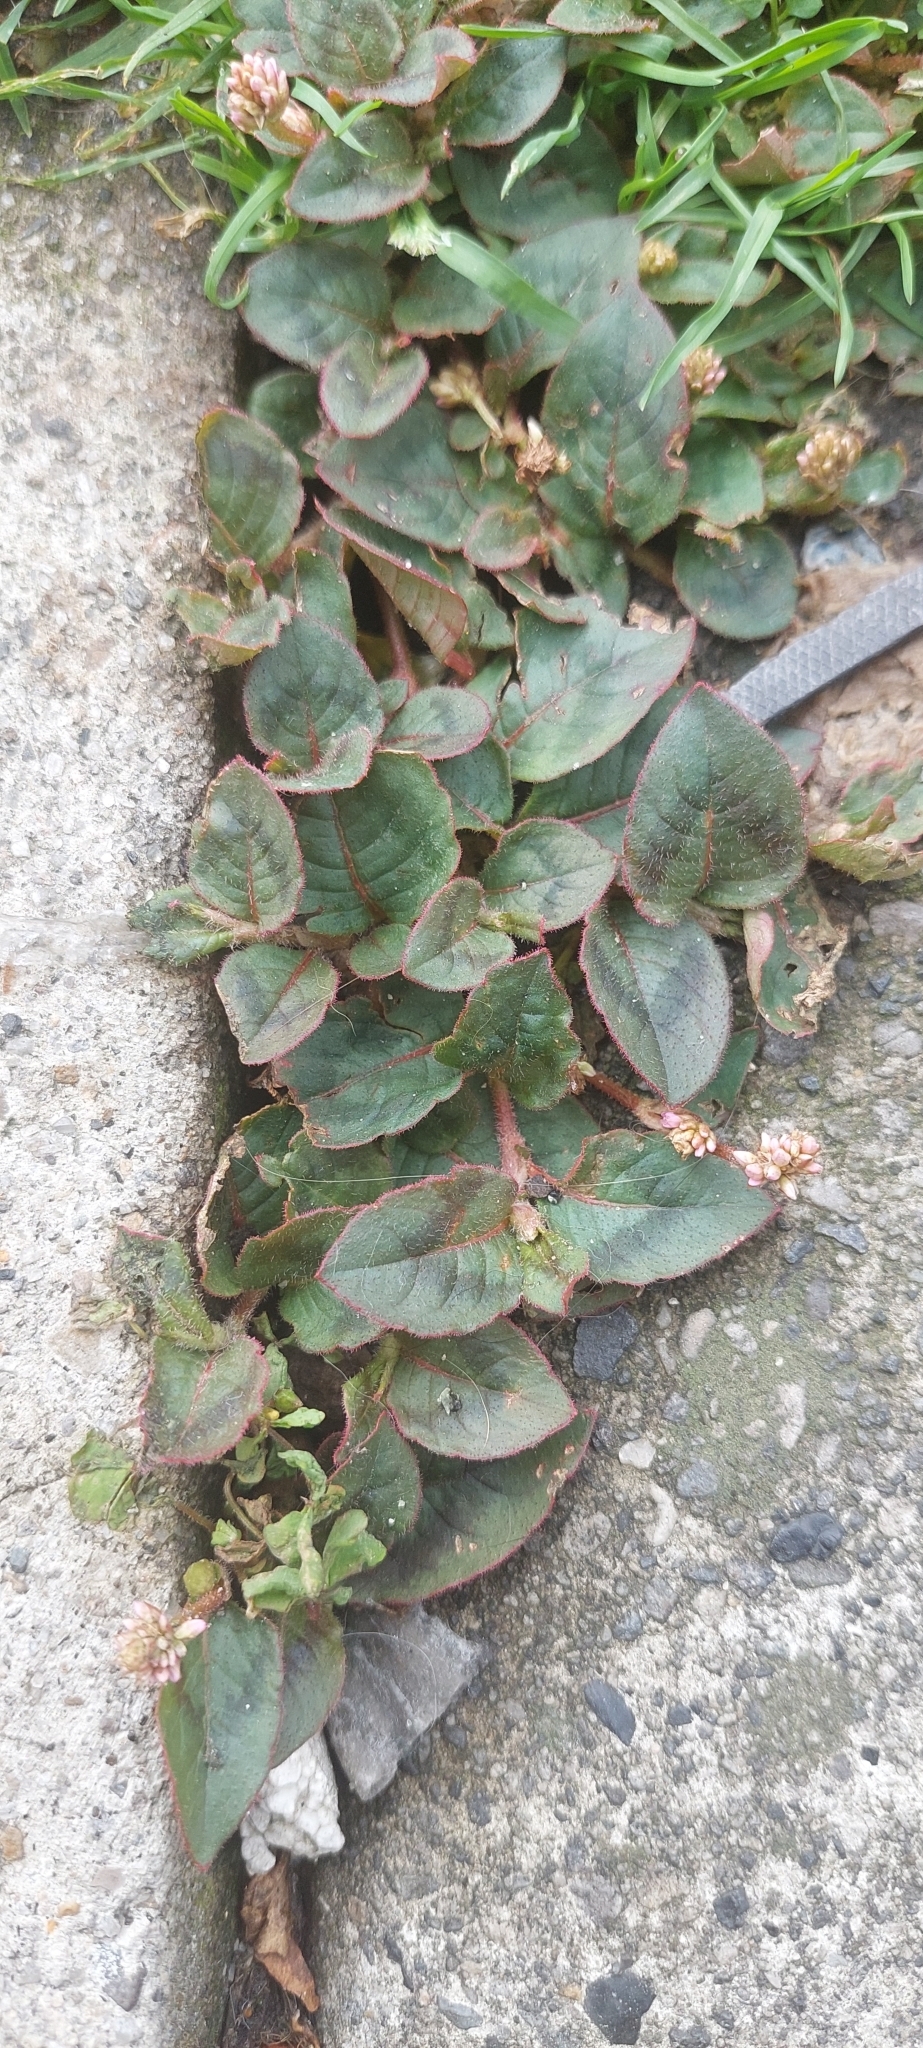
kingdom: Plantae
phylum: Tracheophyta
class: Magnoliopsida
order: Caryophyllales
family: Polygonaceae
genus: Persicaria
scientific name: Persicaria capitata
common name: Pinkhead smartweed
